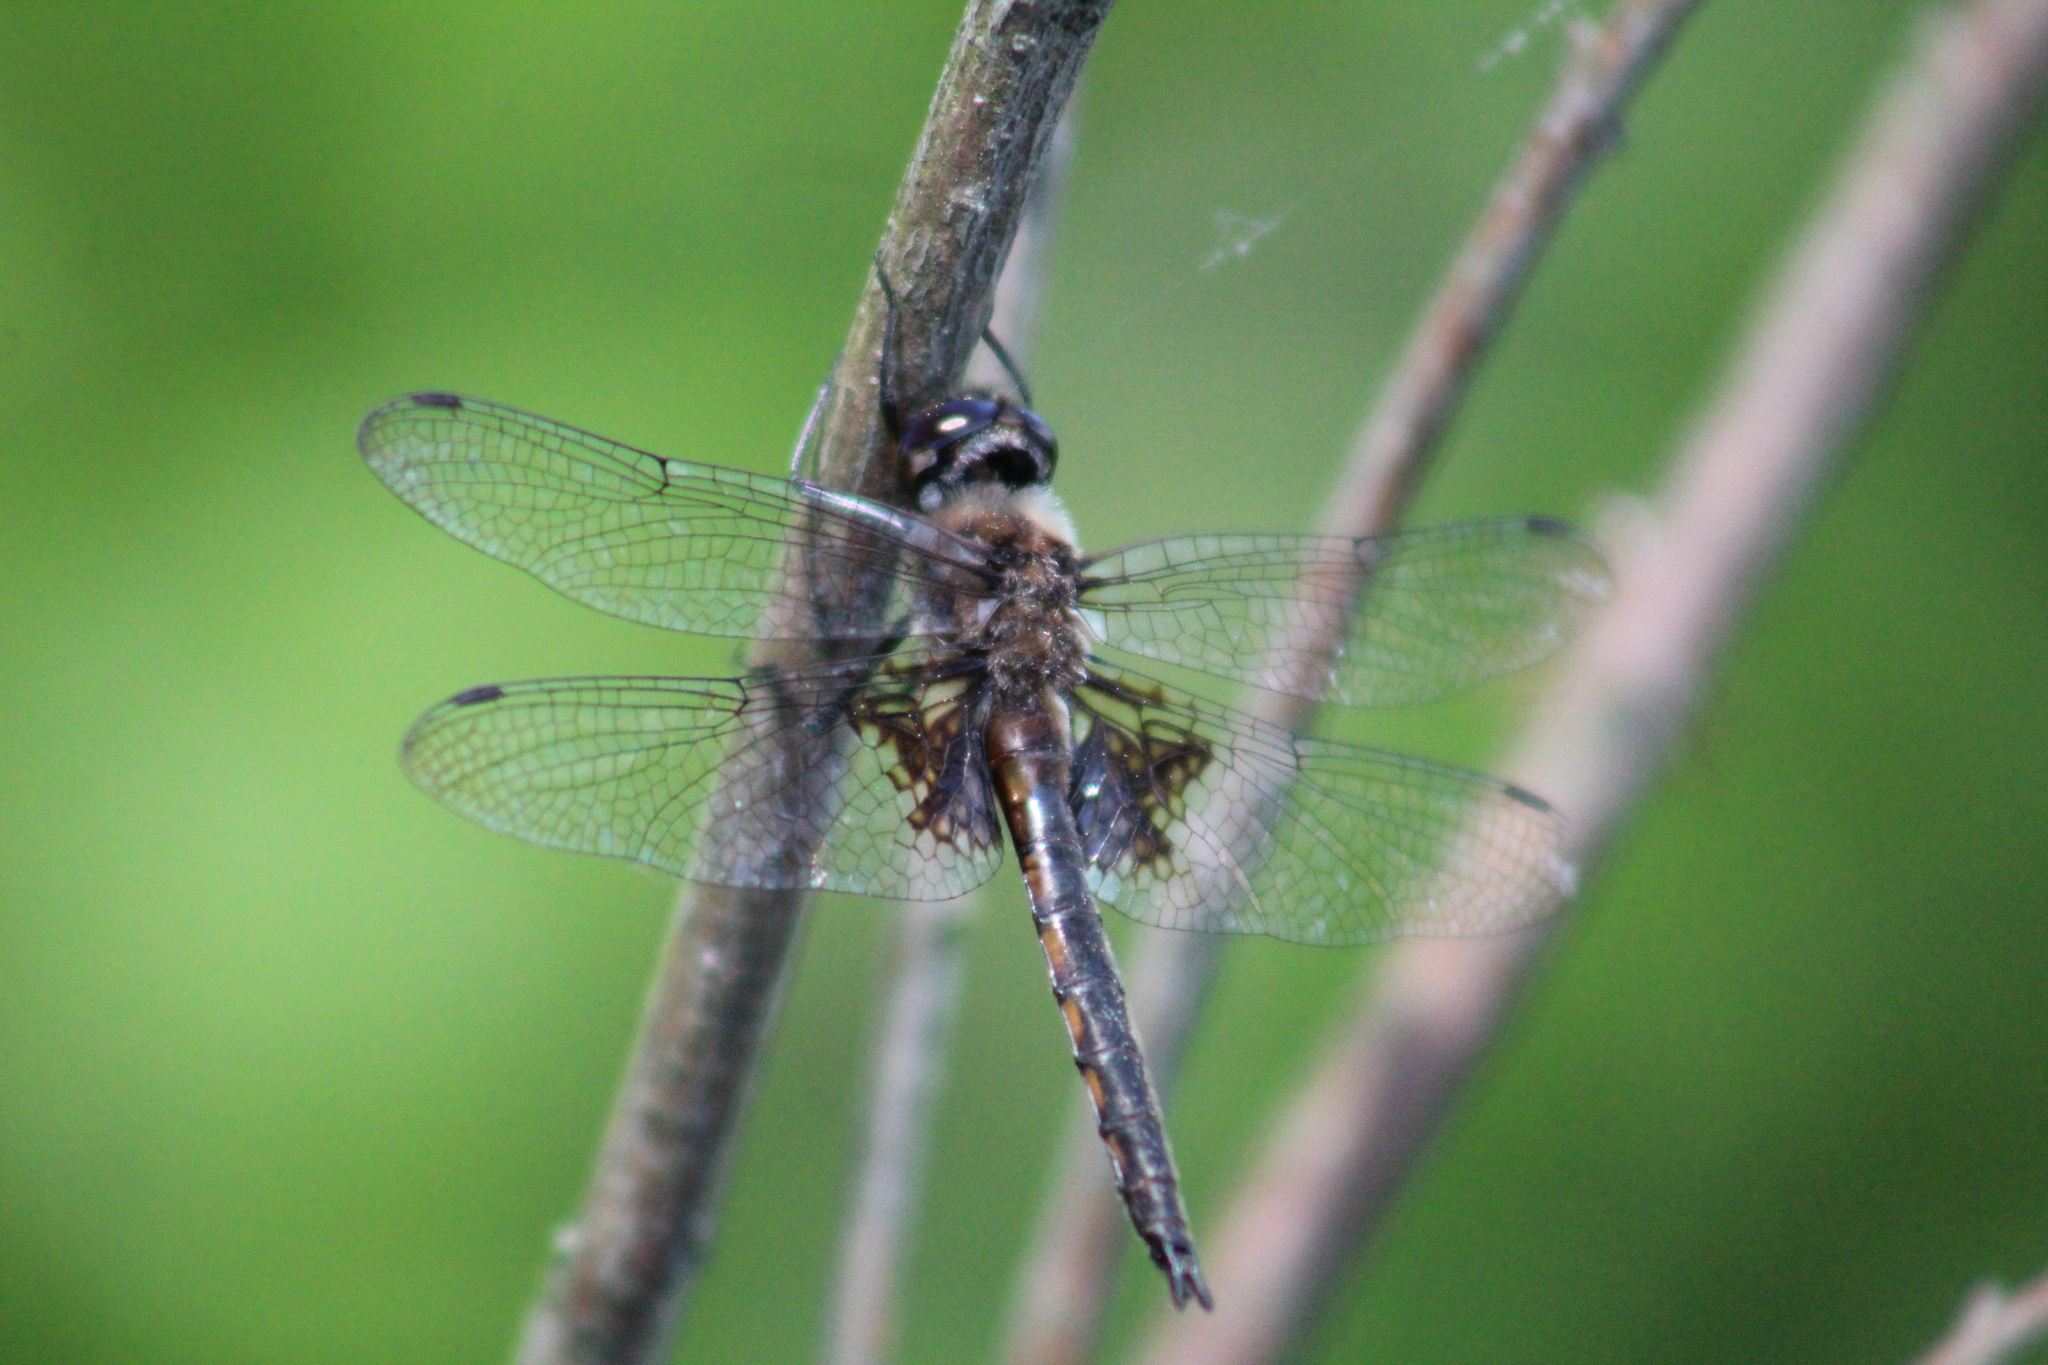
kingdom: Animalia
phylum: Arthropoda
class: Insecta
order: Odonata
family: Corduliidae
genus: Epitheca
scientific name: Epitheca cynosura
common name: Common baskettail
